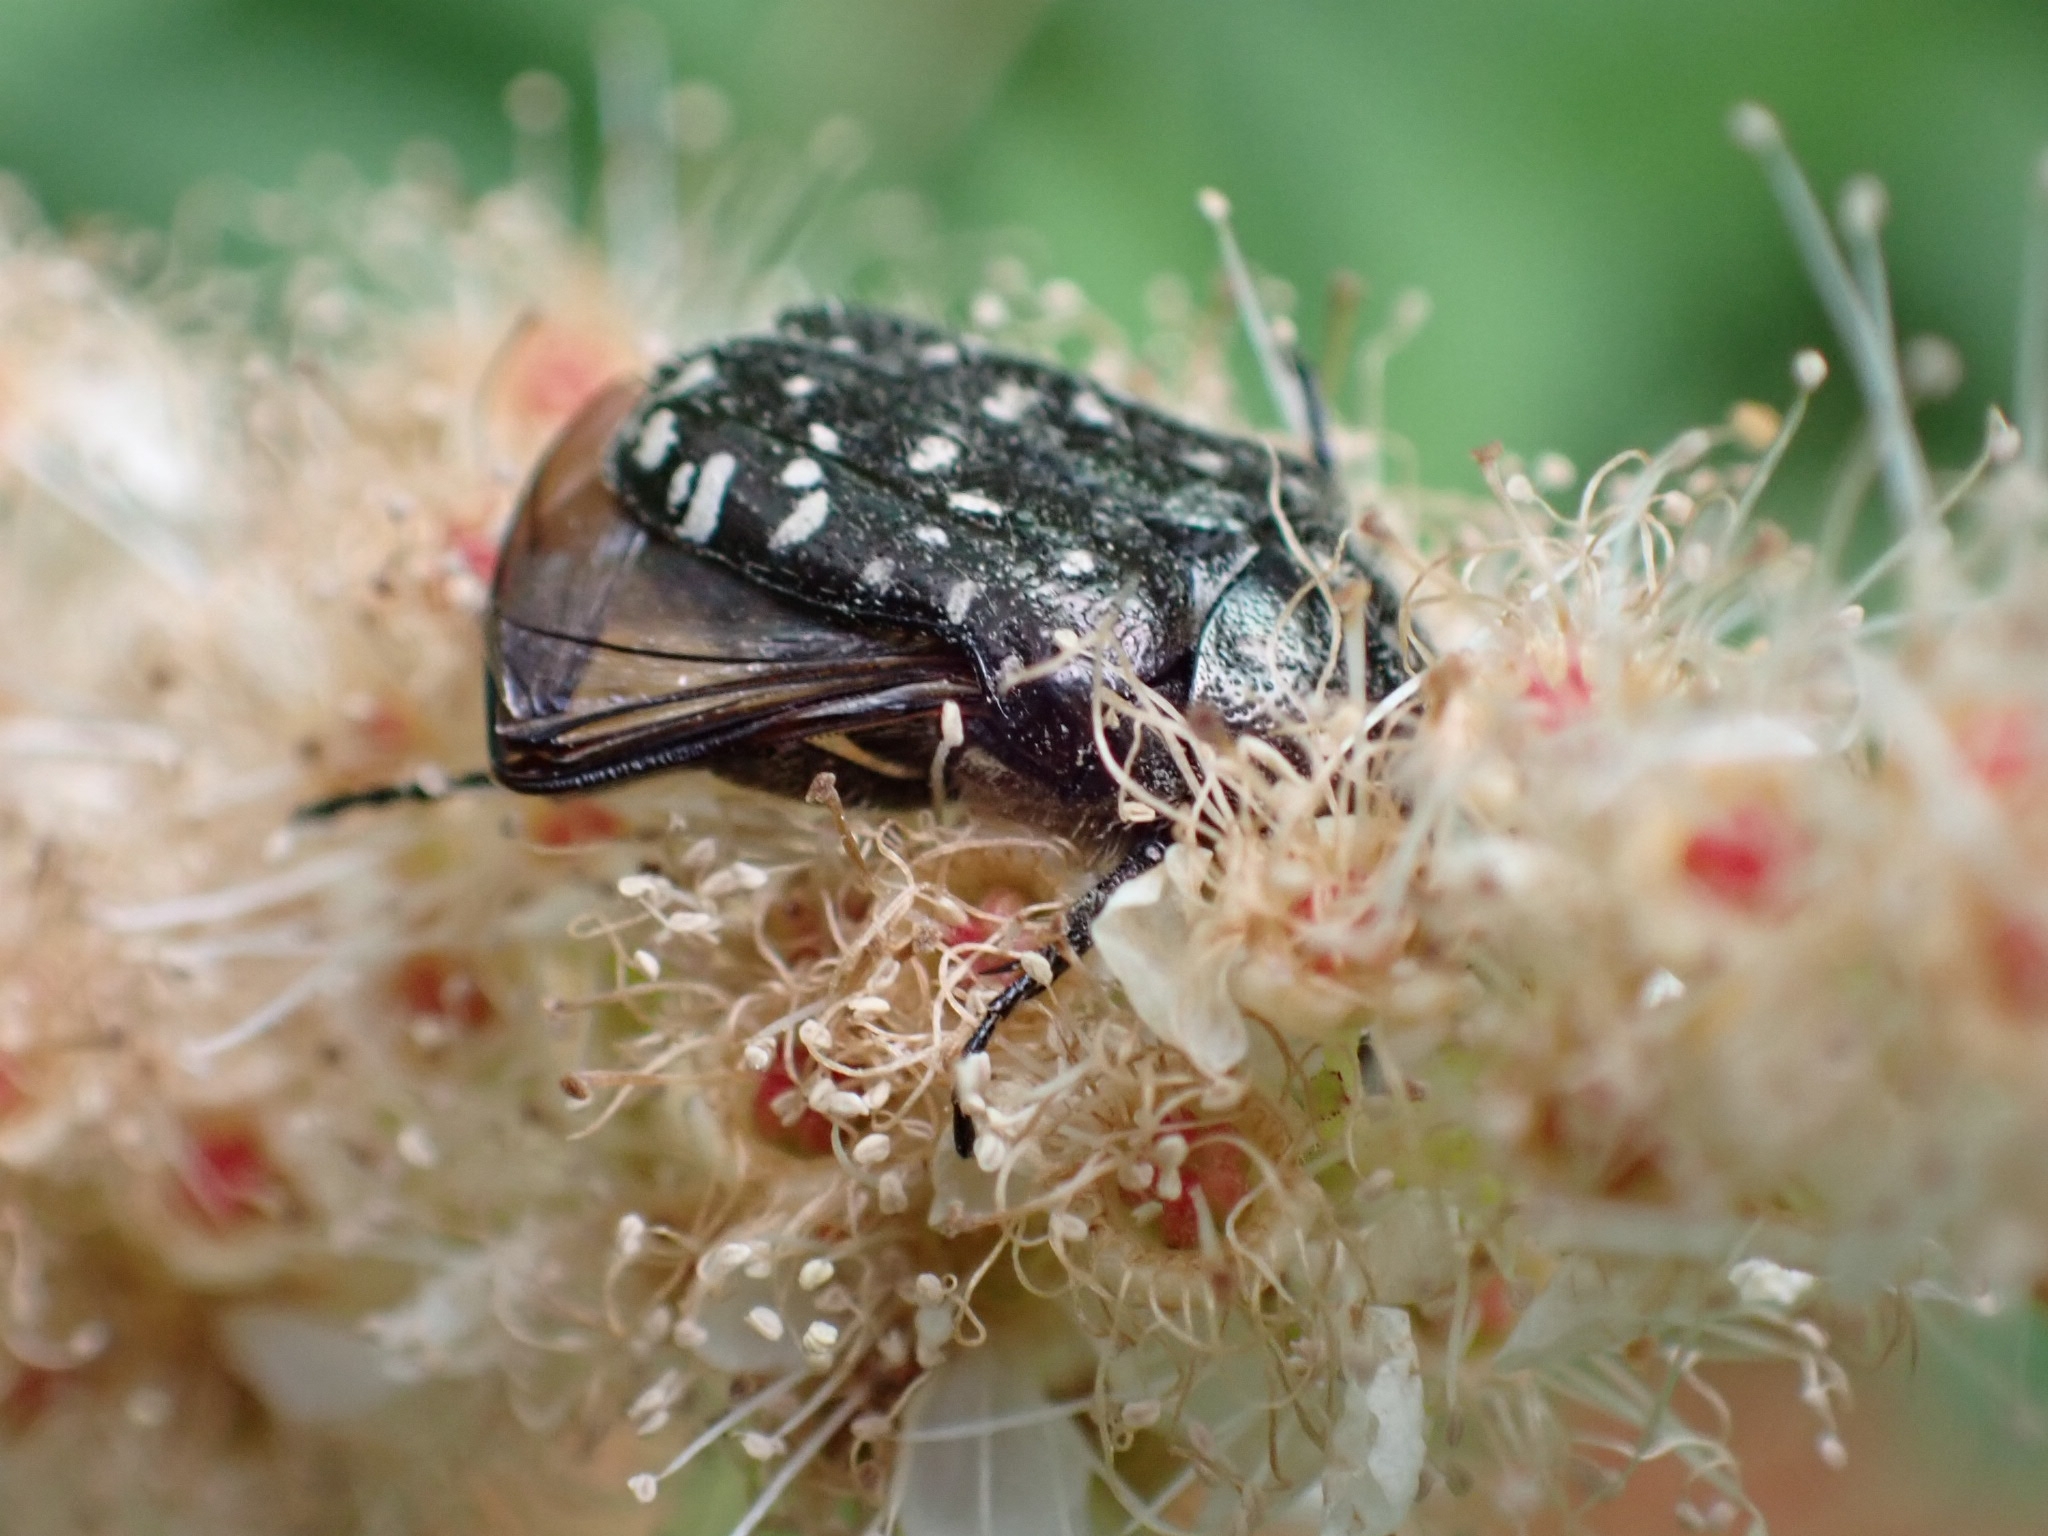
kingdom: Animalia
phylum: Arthropoda
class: Insecta
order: Coleoptera
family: Scarabaeidae
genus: Oxythyrea
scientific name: Oxythyrea funesta
